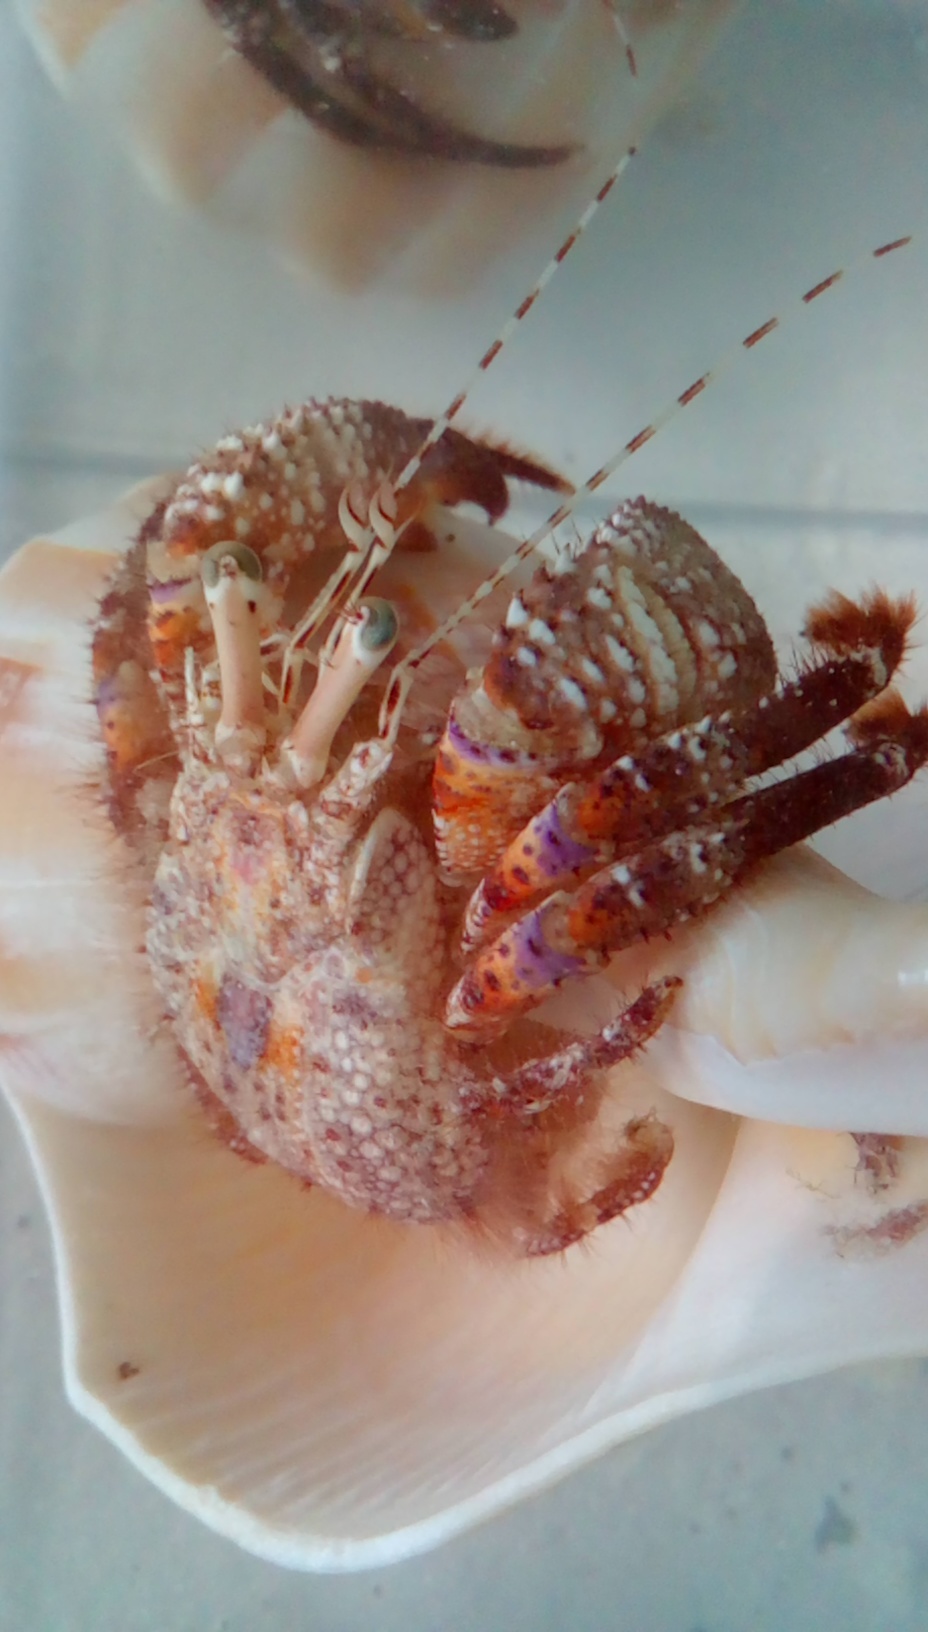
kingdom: Animalia
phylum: Arthropoda
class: Malacostraca
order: Decapoda
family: Diogenidae
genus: Petrochirus
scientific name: Petrochirus diogenes
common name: Giant hermit crab
